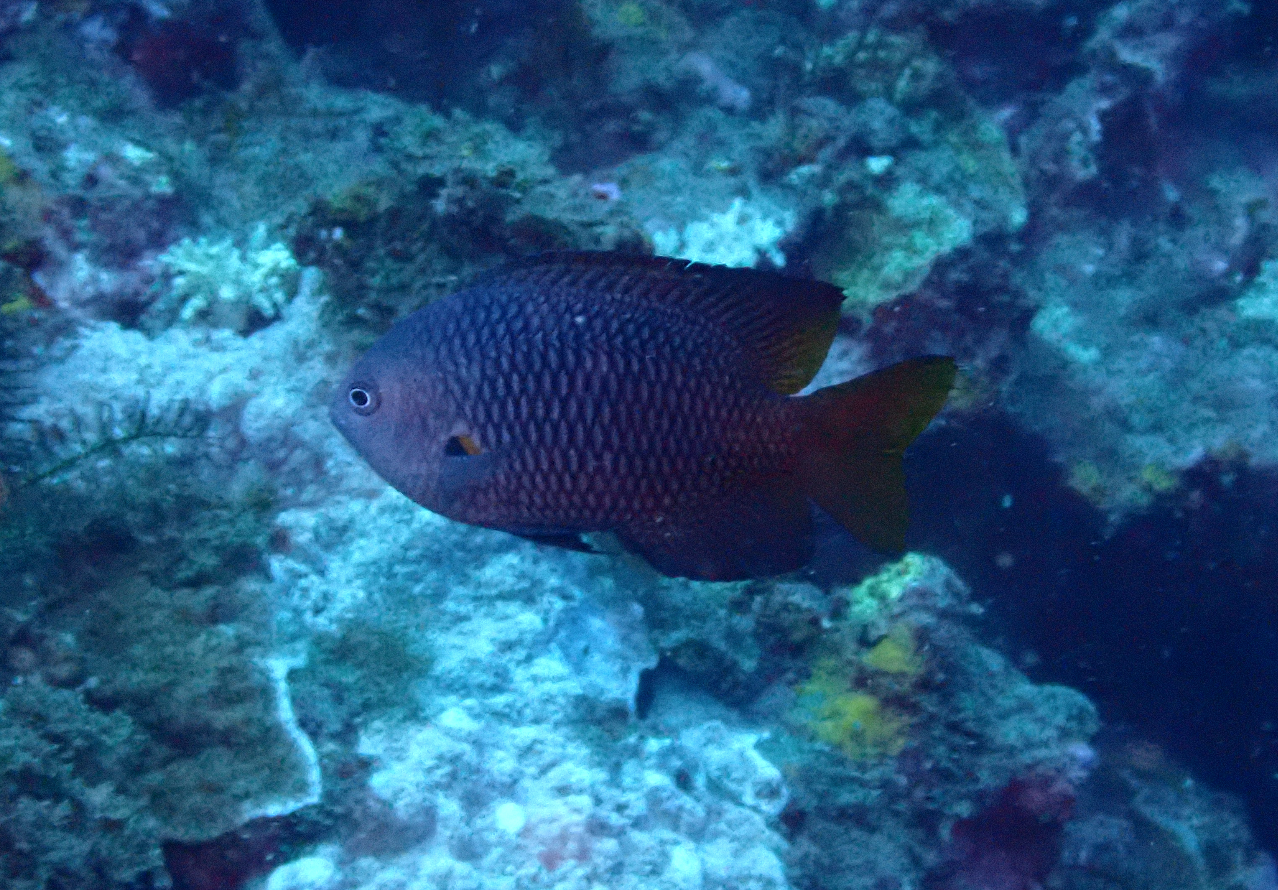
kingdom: Animalia
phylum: Chordata
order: Perciformes
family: Pomacentridae
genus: Pomacentrus
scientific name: Pomacentrus philippinus
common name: Philippine damsel
